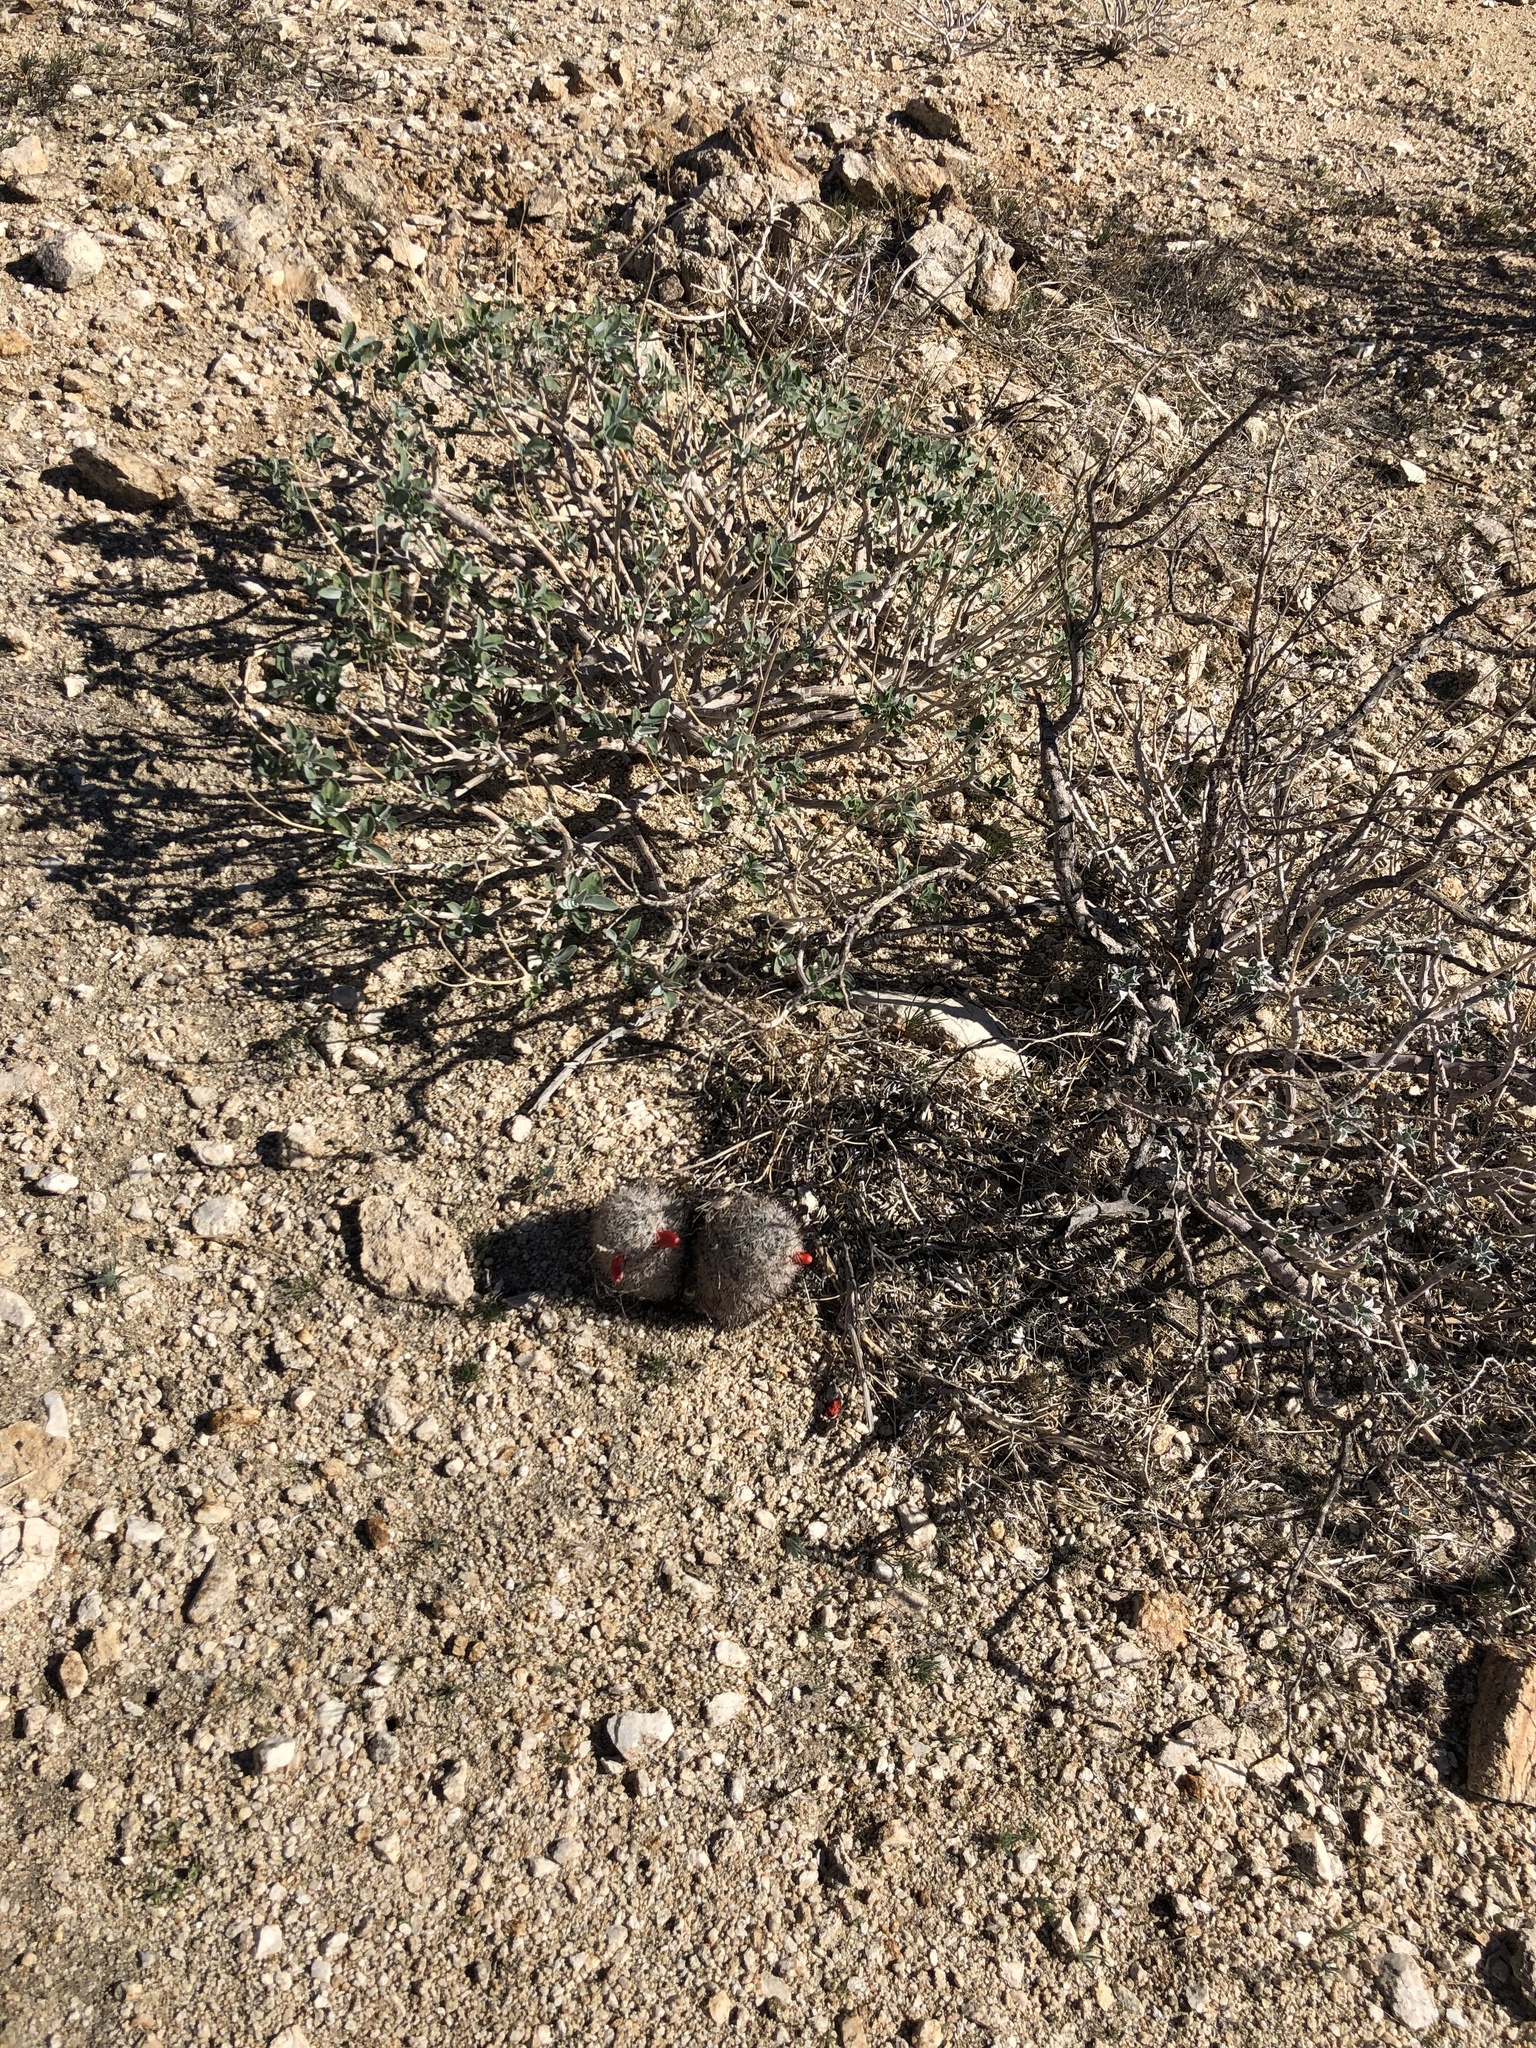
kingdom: Plantae
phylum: Tracheophyta
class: Magnoliopsida
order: Caryophyllales
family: Cactaceae
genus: Cochemiea
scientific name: Cochemiea tetrancistra
